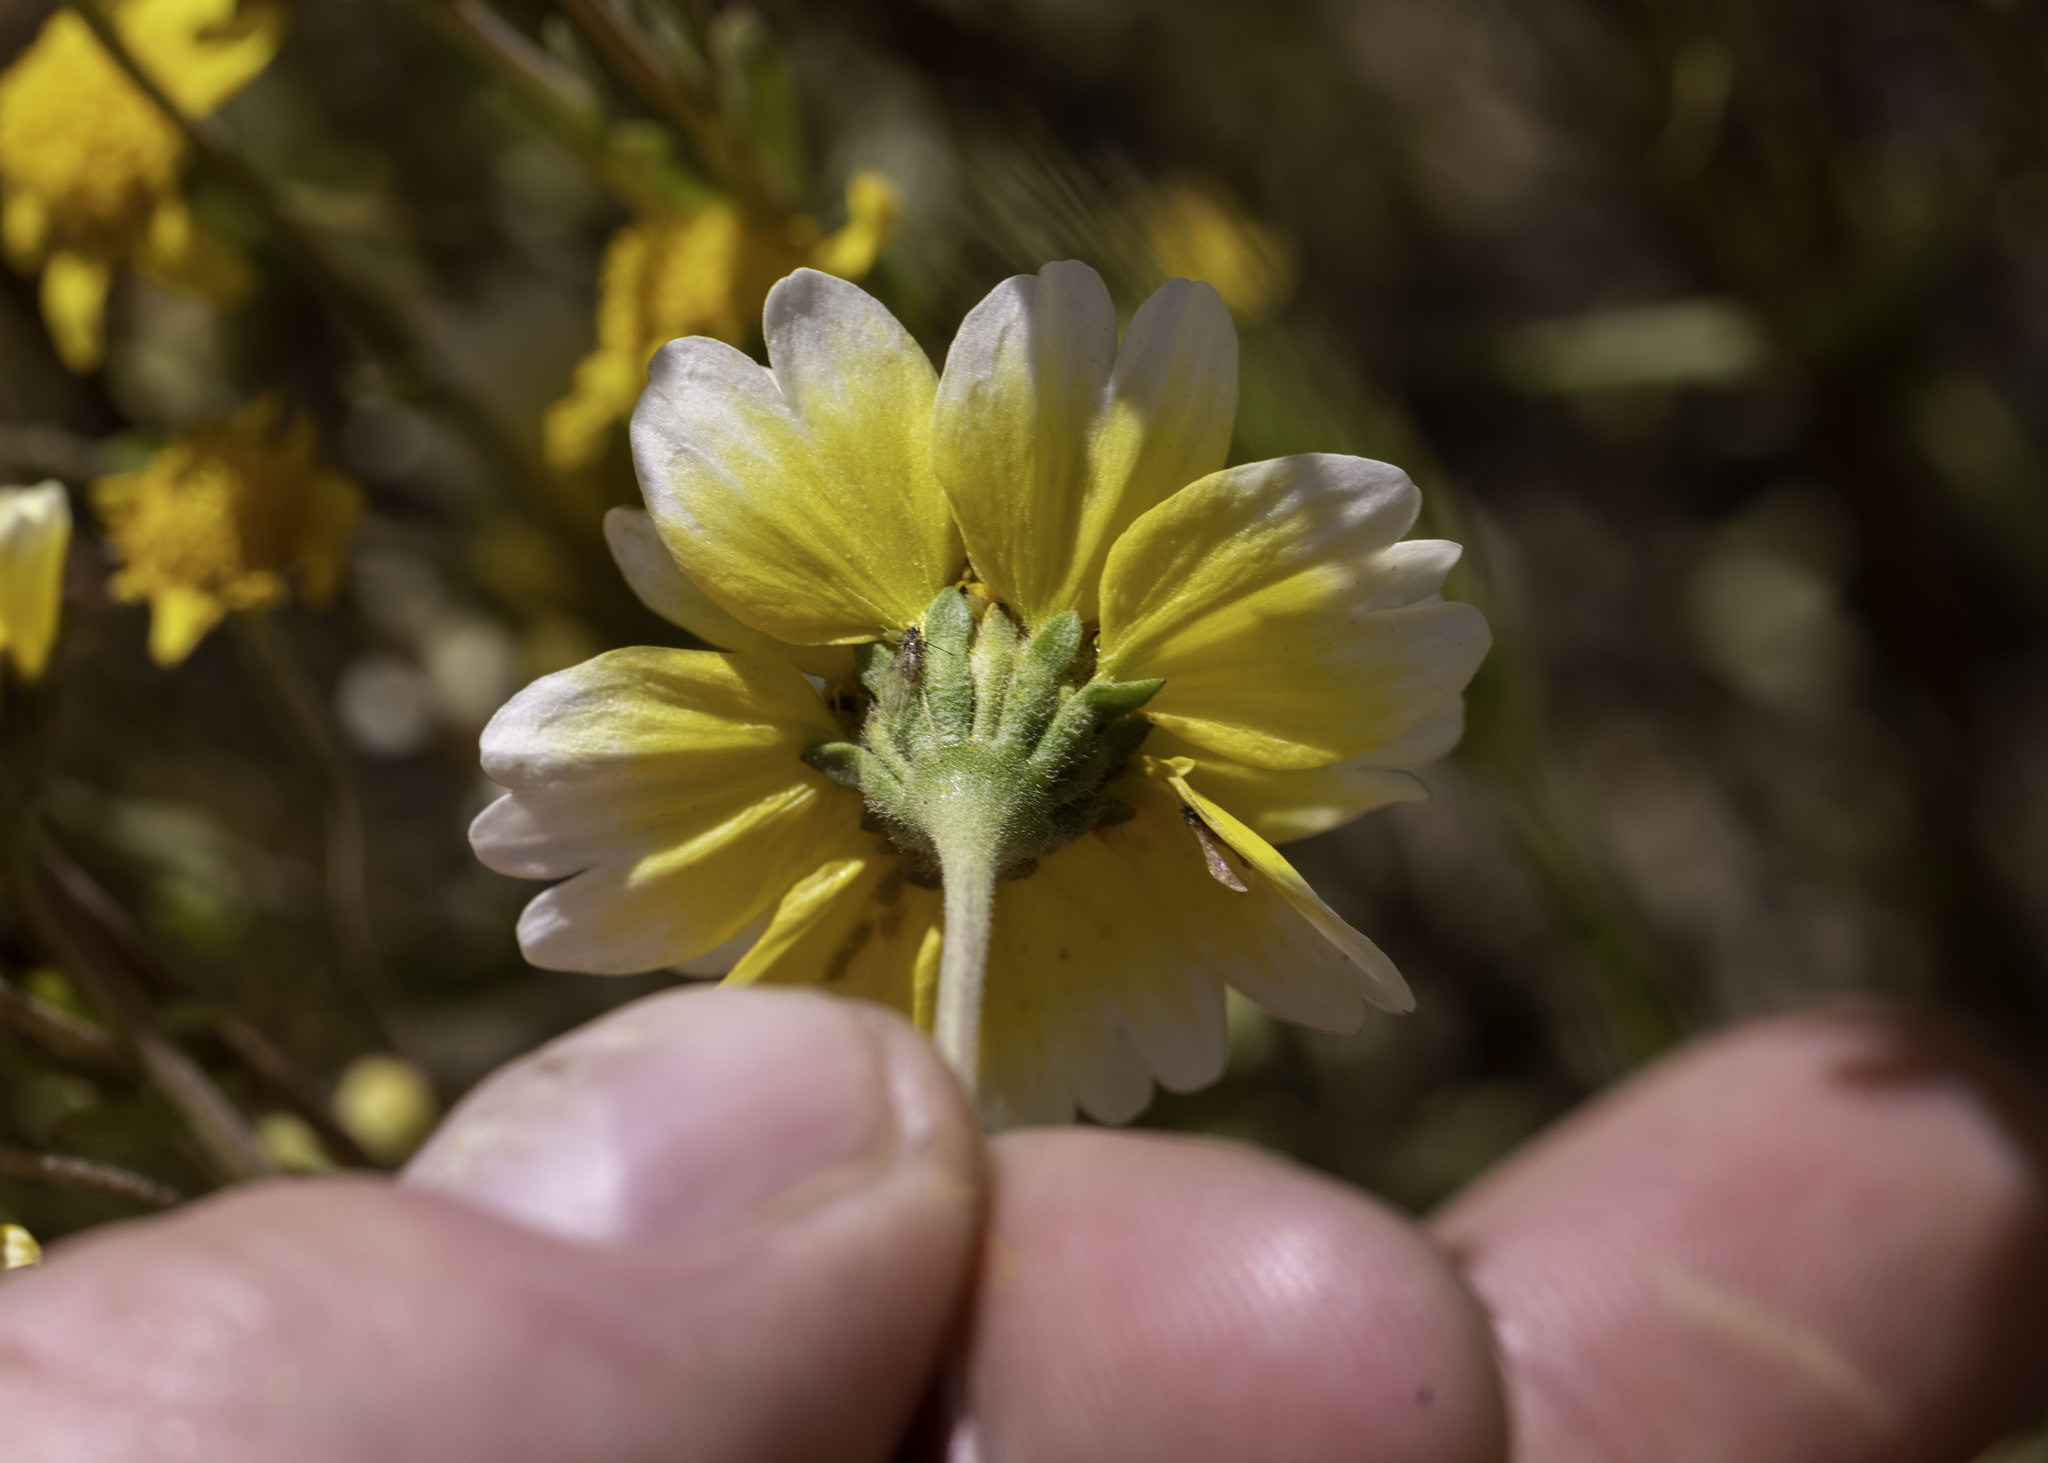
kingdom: Plantae
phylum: Tracheophyta
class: Magnoliopsida
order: Asterales
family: Asteraceae
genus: Layia
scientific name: Layia munzii
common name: Munz's tidy-tips
